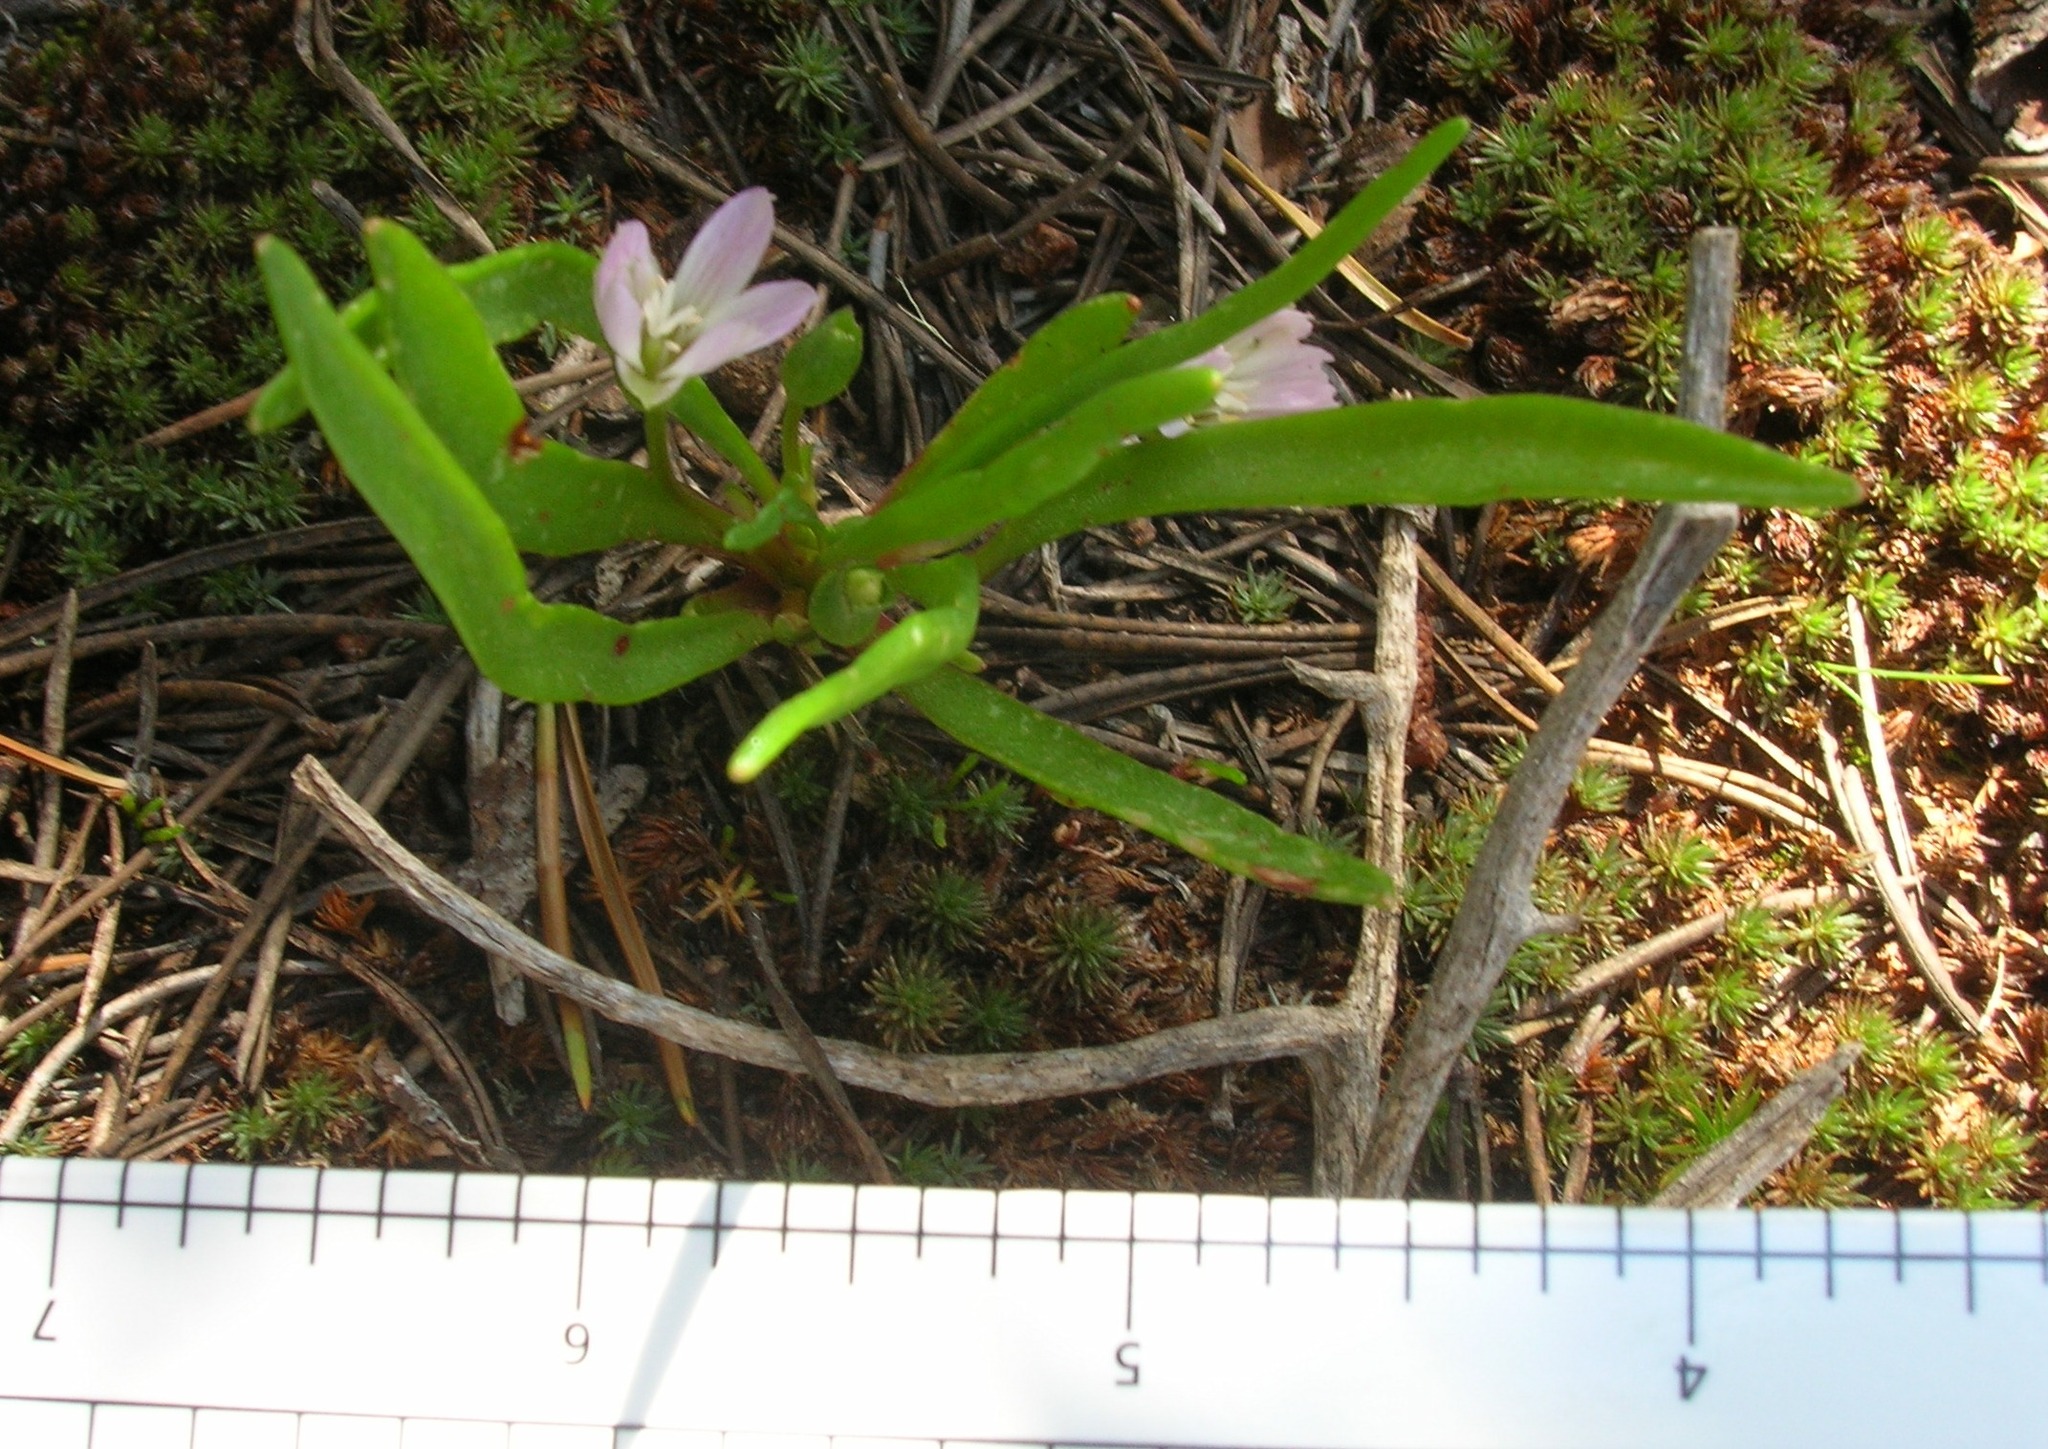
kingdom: Plantae
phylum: Tracheophyta
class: Magnoliopsida
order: Caryophyllales
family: Montiaceae
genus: Lewisia
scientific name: Lewisia nevadensis
